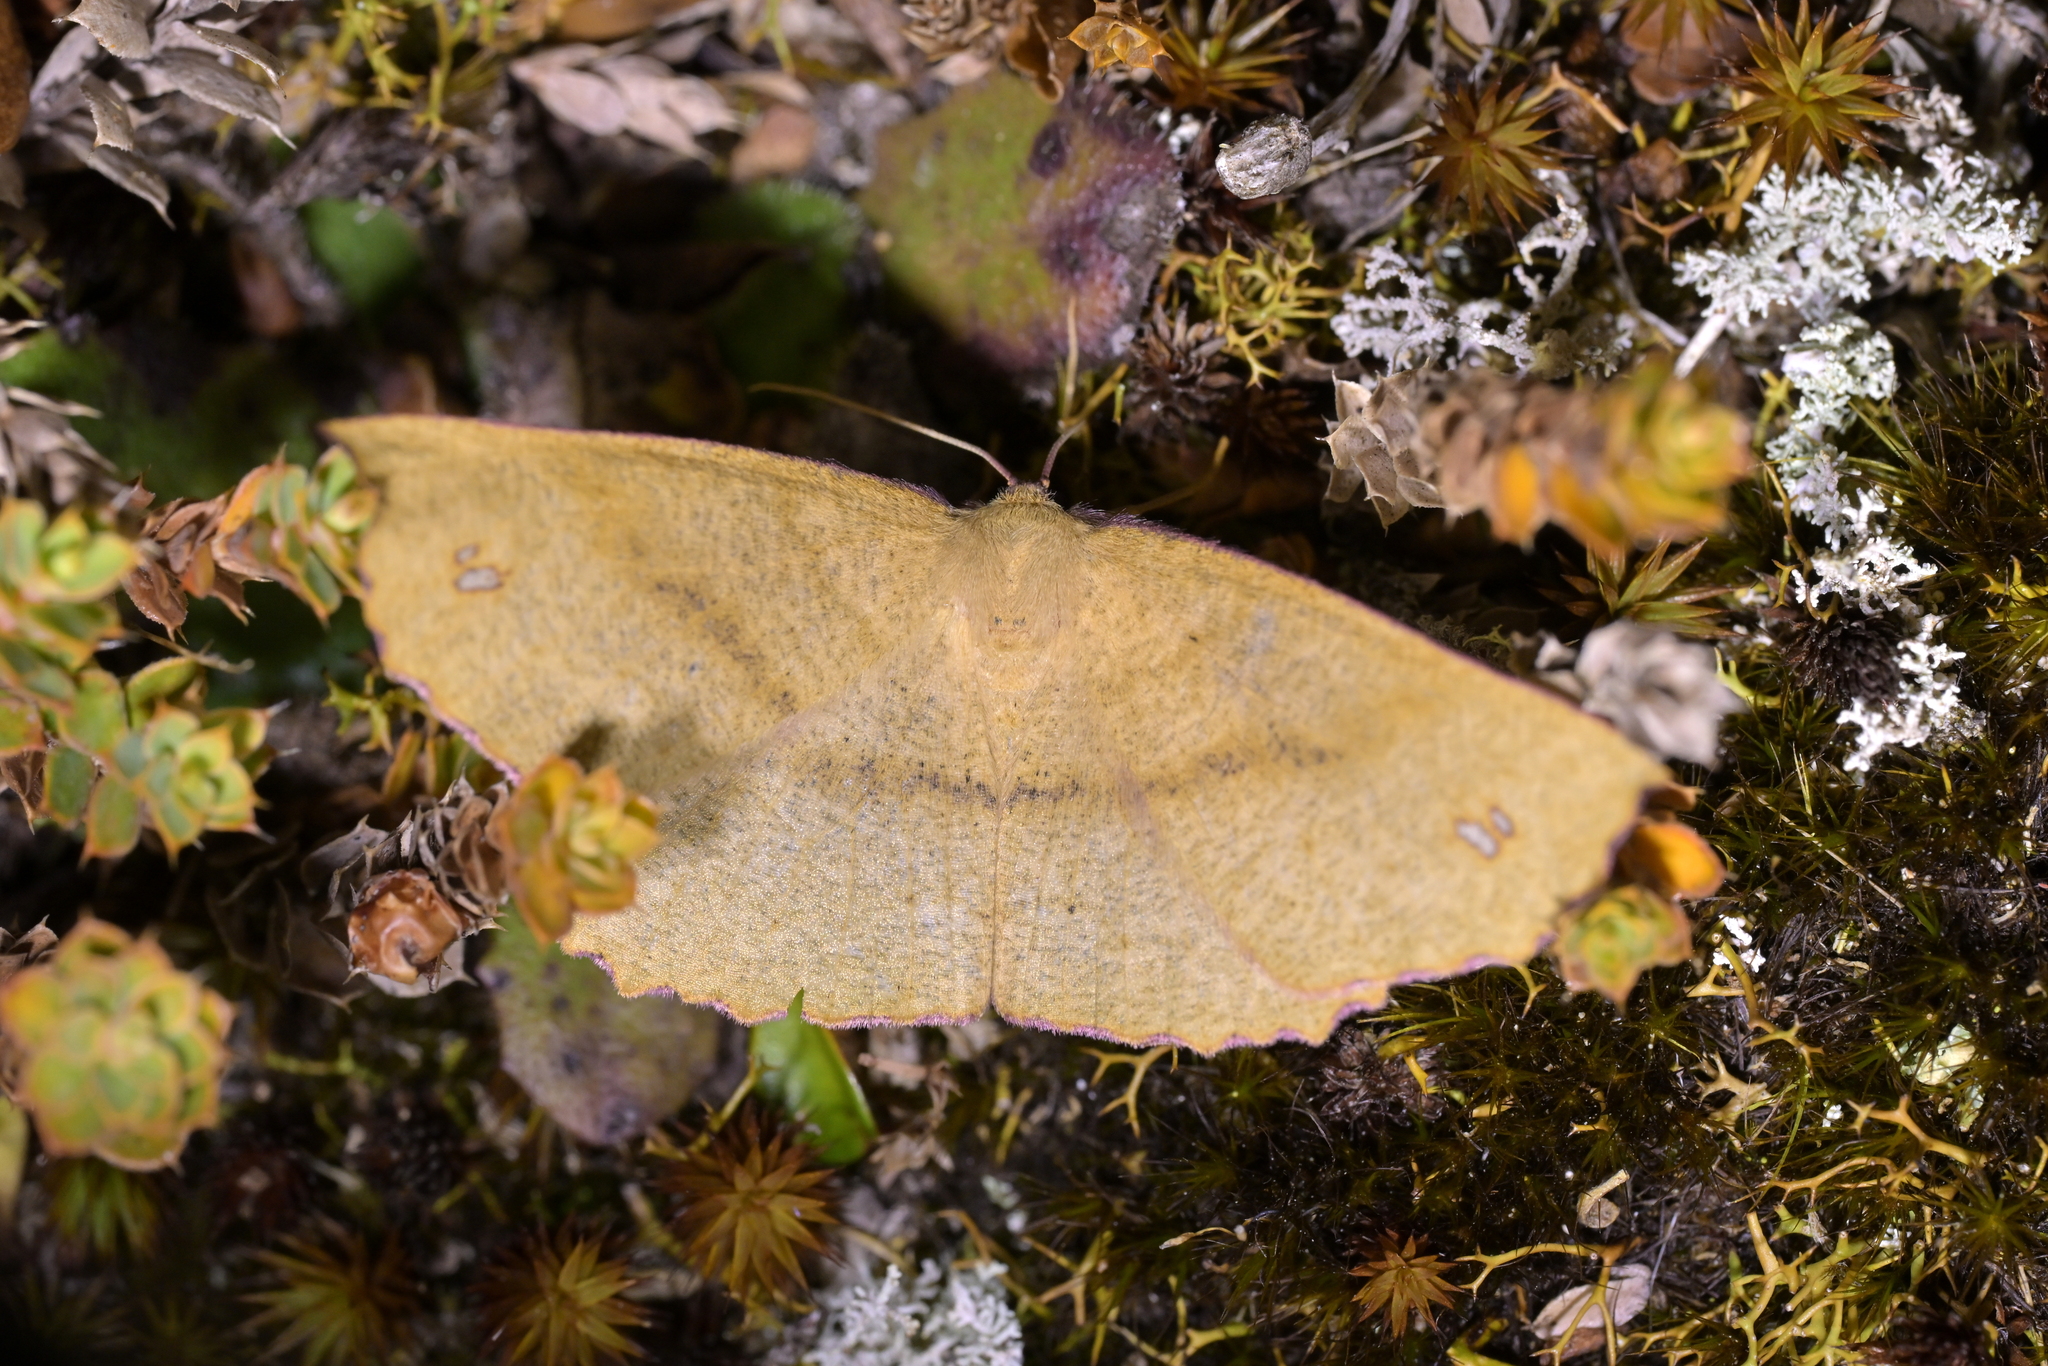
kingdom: Animalia
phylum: Arthropoda
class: Insecta
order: Lepidoptera
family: Geometridae
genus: Xyridacma
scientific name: Xyridacma ustaria
